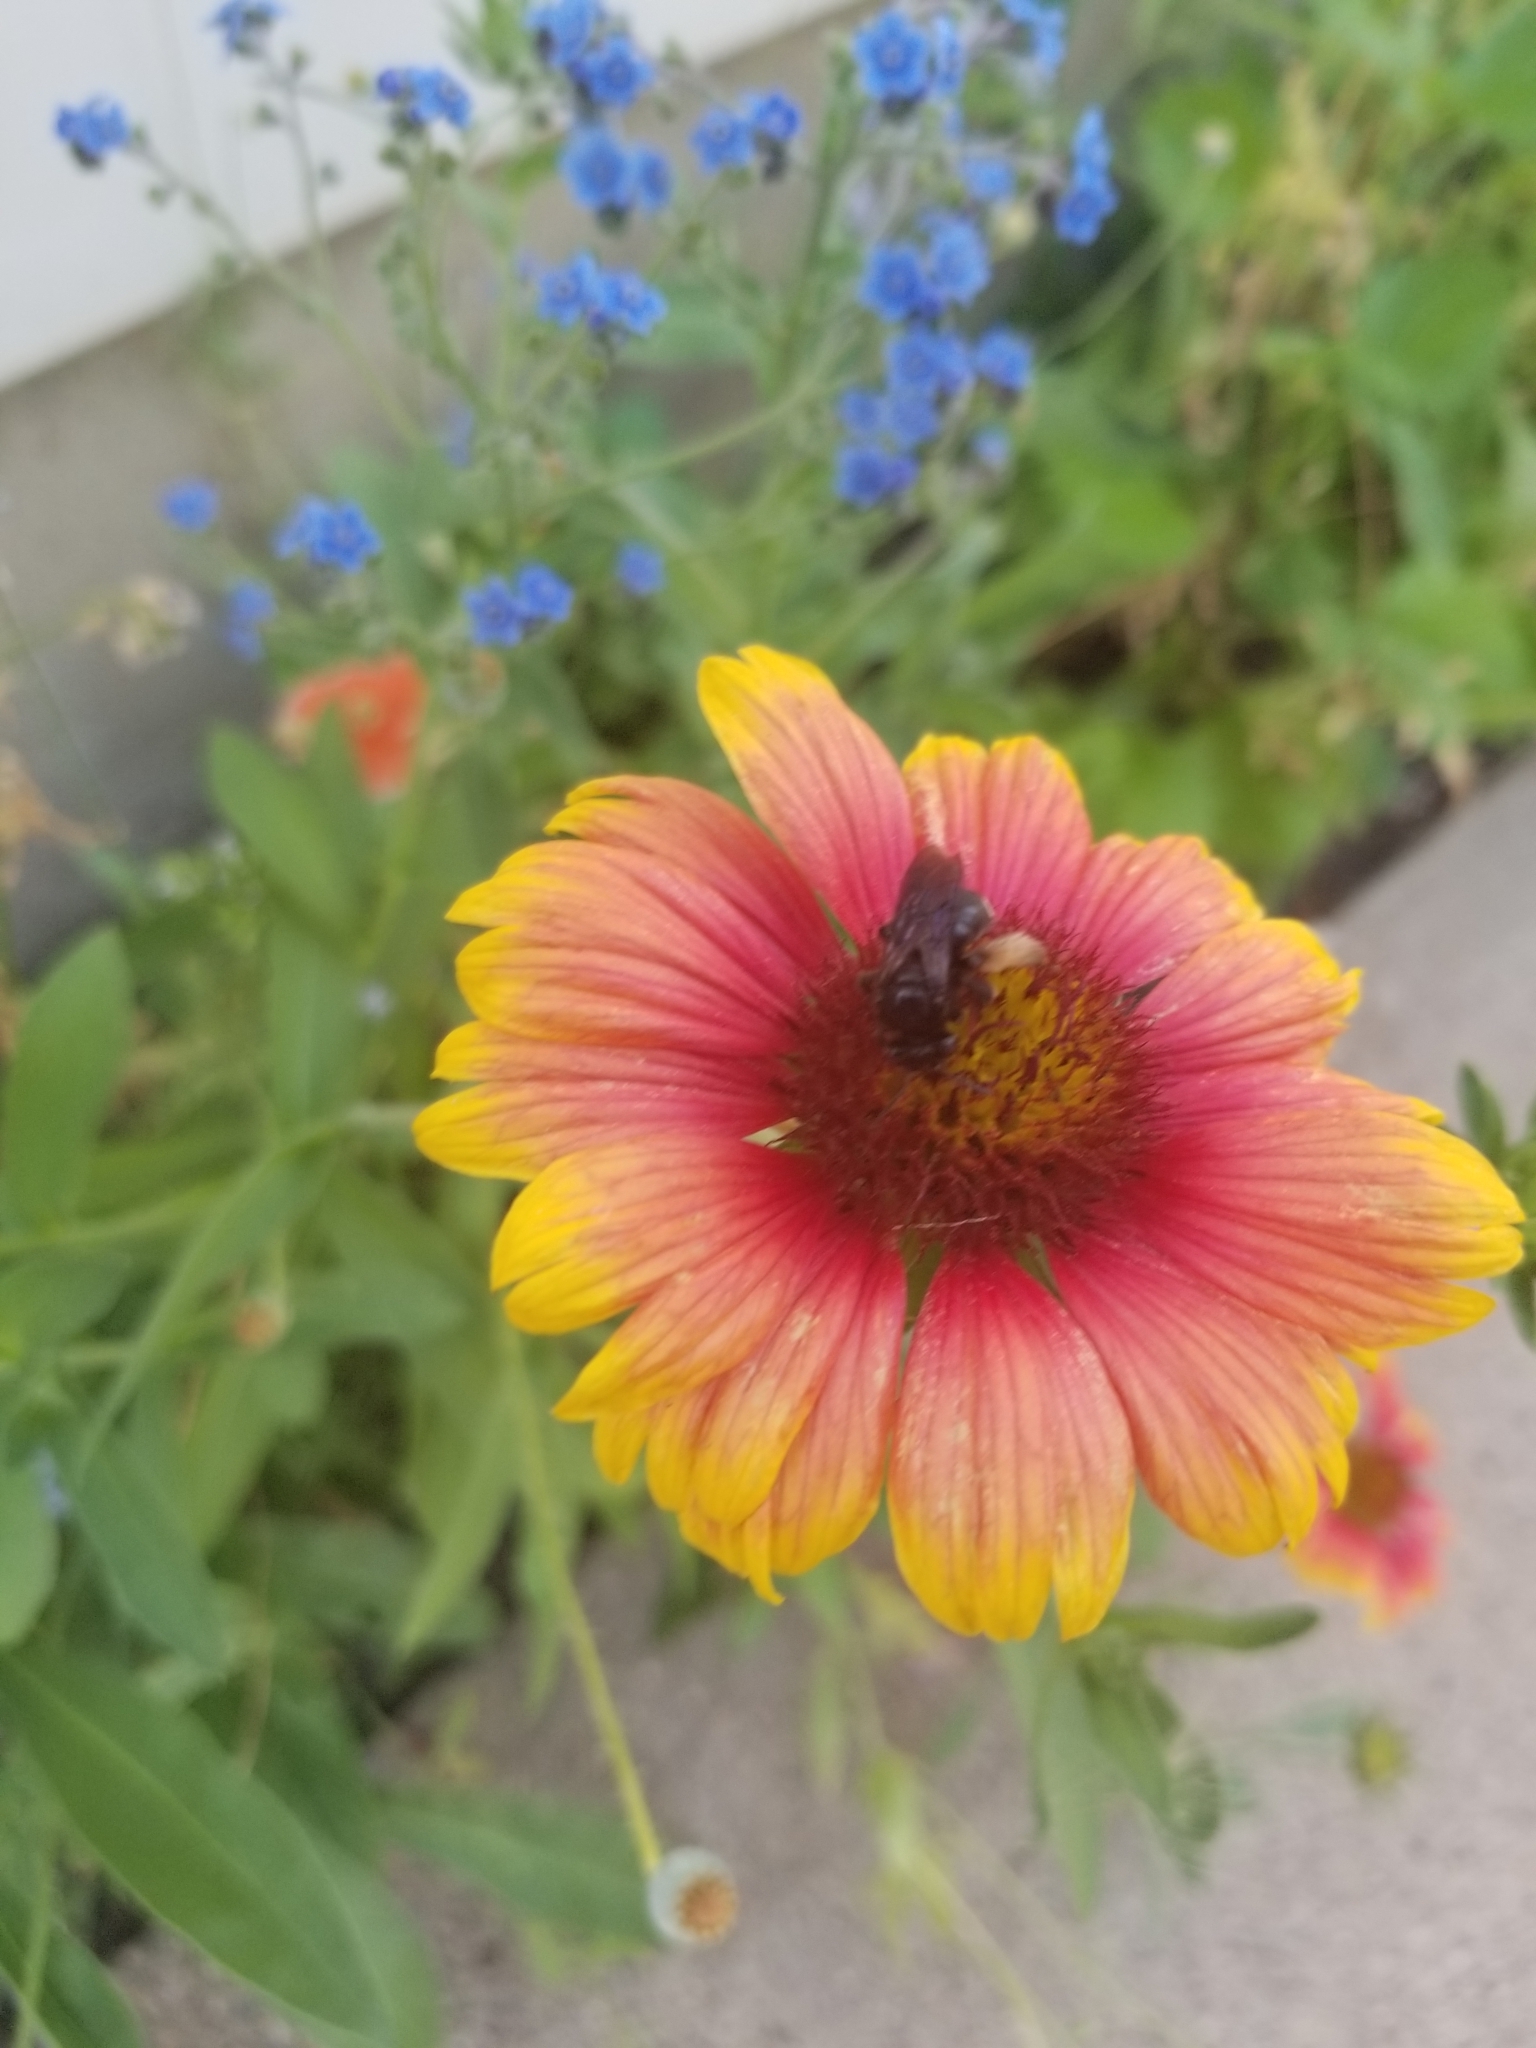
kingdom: Animalia
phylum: Arthropoda
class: Insecta
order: Hymenoptera
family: Apidae
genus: Melissodes
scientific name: Melissodes bimaculatus
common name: Two-spotted long-horned bee
